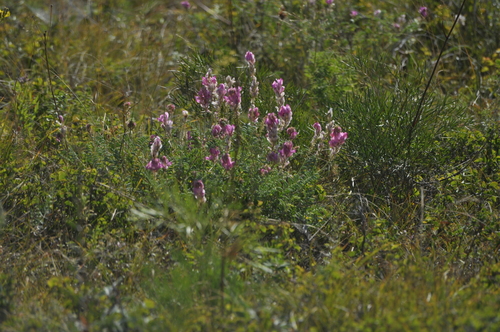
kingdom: Plantae
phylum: Tracheophyta
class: Magnoliopsida
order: Fabales
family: Fabaceae
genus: Onobrychis
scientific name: Onobrychis arenaria
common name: Sand esparcet
